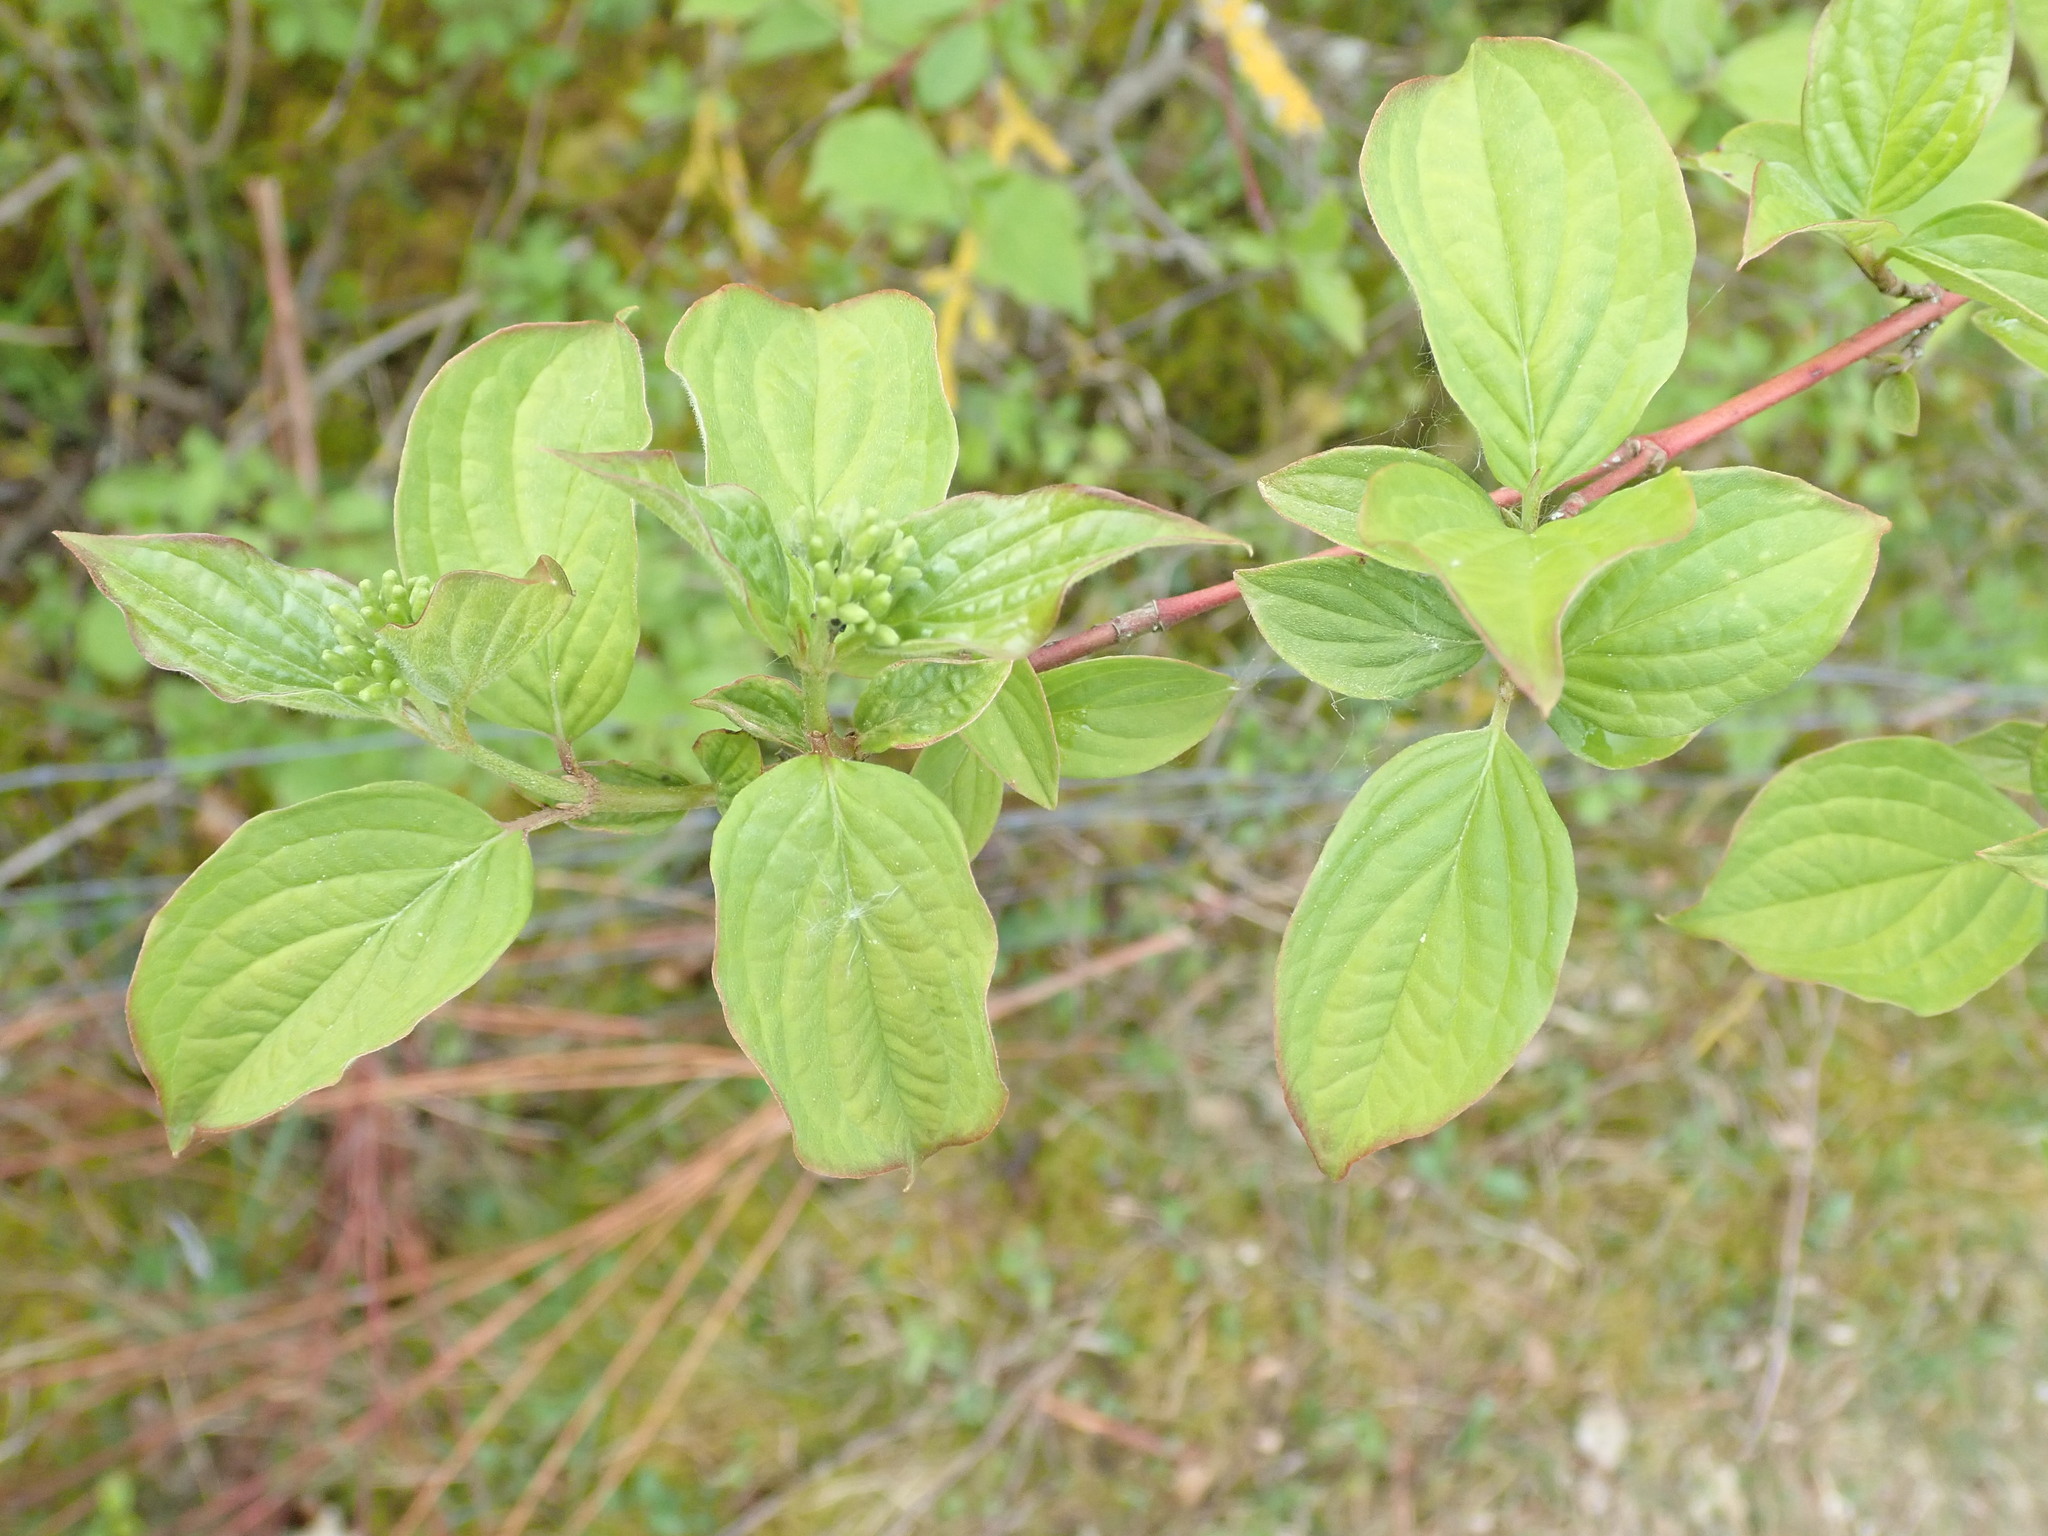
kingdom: Plantae
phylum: Tracheophyta
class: Magnoliopsida
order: Cornales
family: Cornaceae
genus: Cornus
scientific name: Cornus sanguinea
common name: Dogwood
